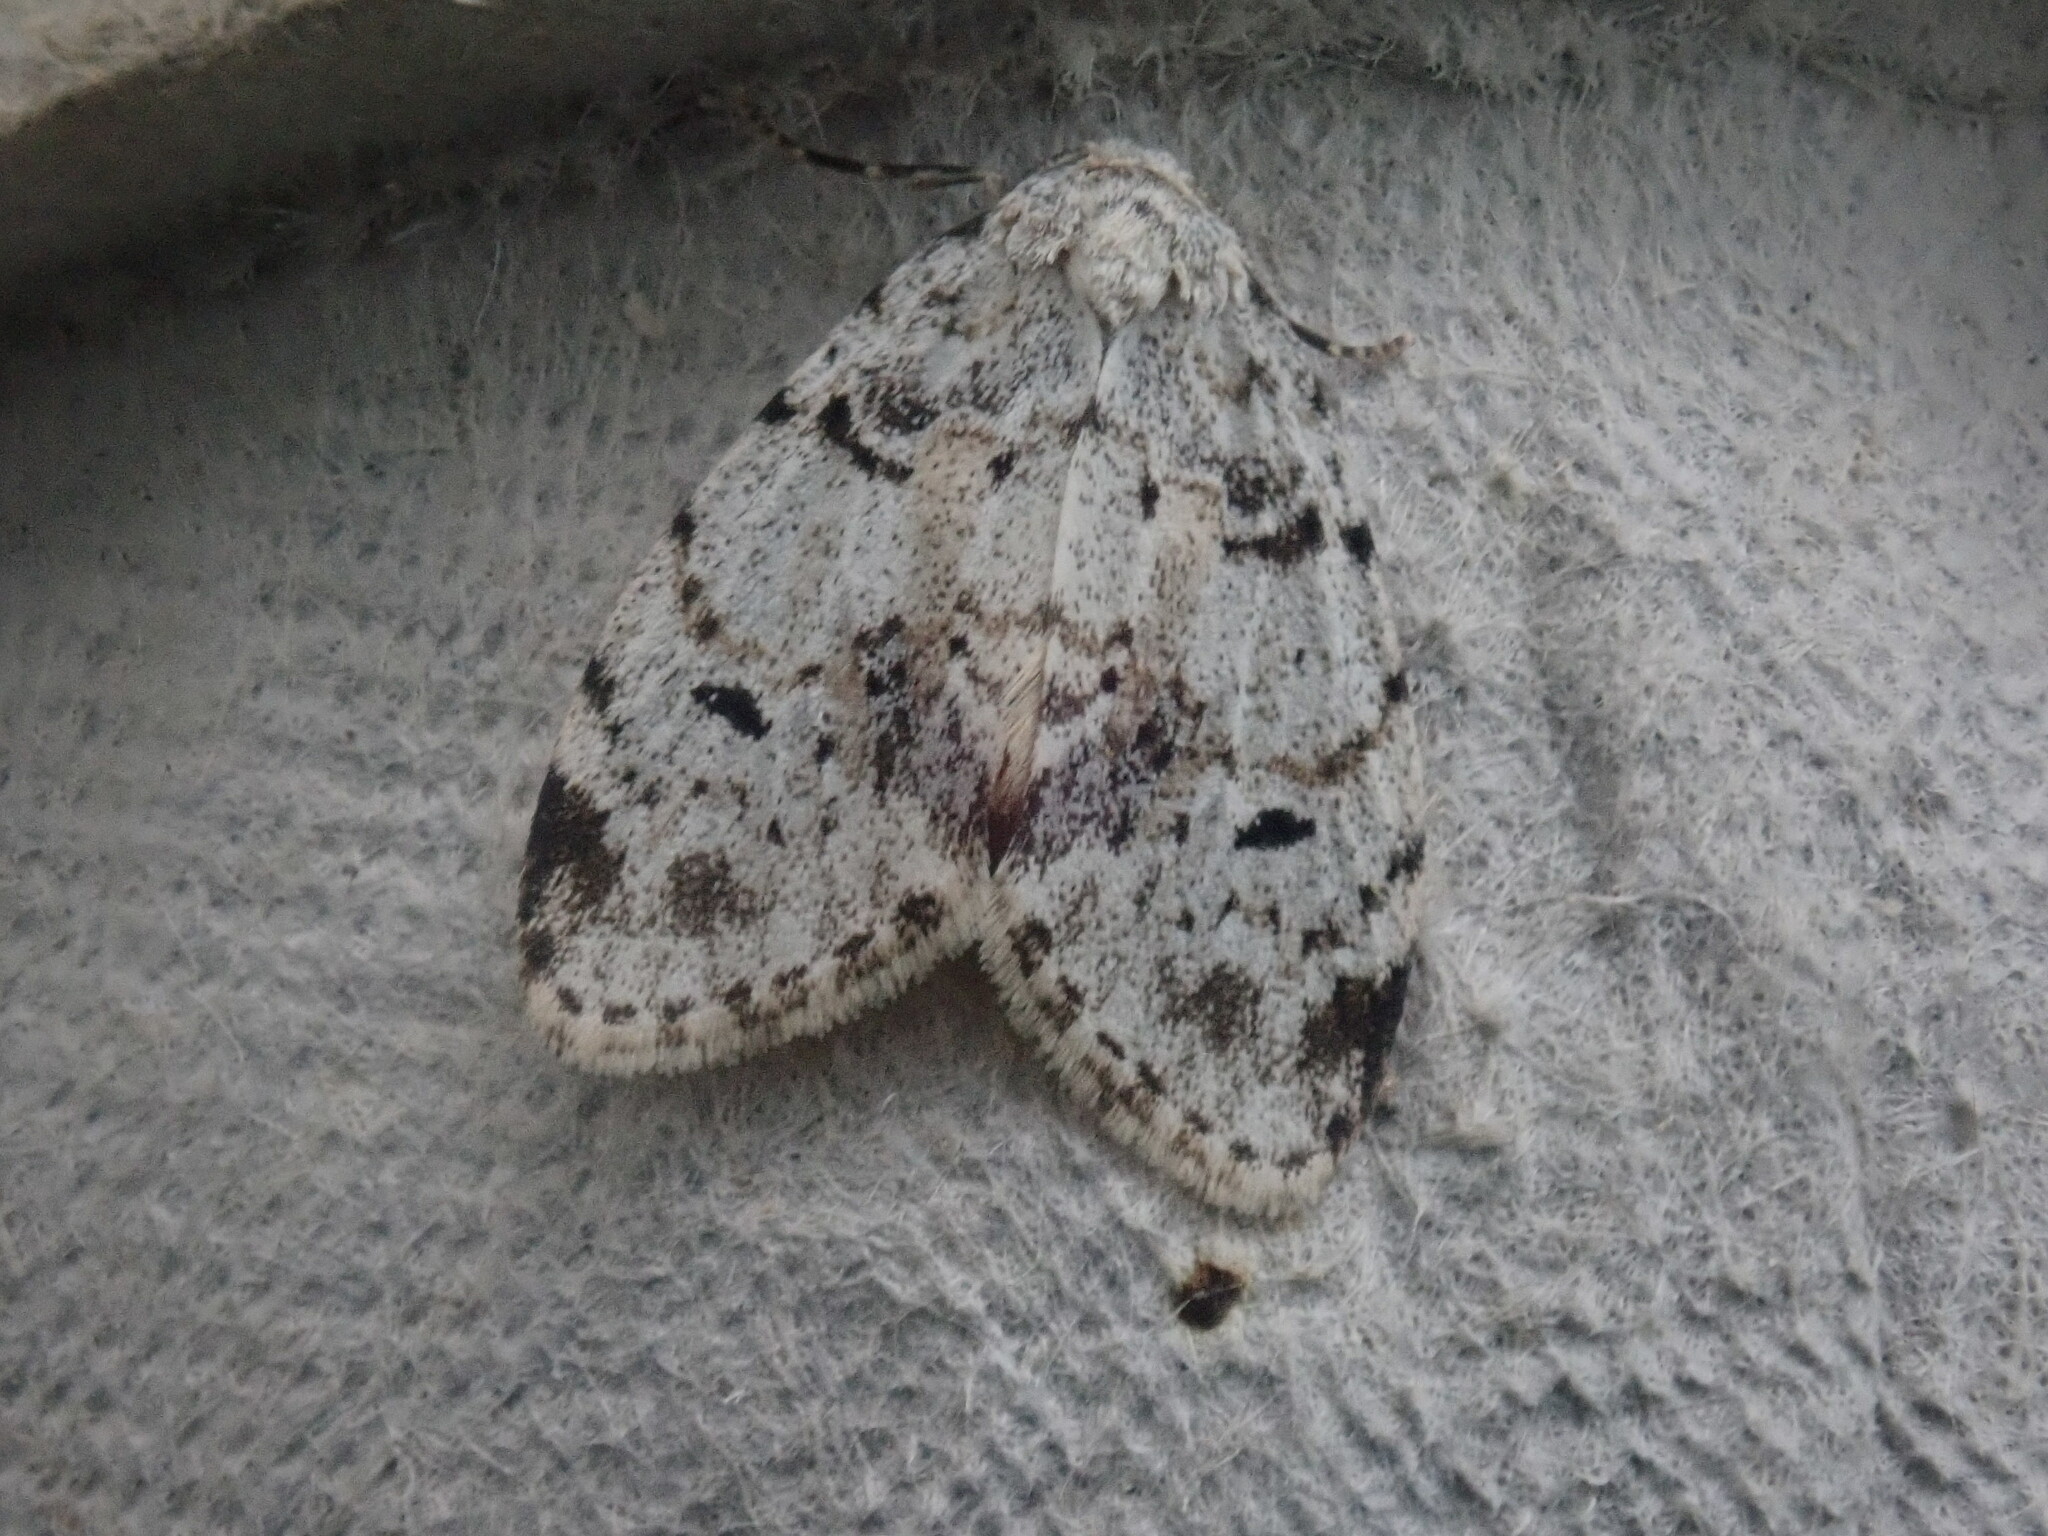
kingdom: Animalia
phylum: Arthropoda
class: Insecta
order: Lepidoptera
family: Erebidae
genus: Clemensia
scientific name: Clemensia albata
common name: Little white lichen moth
